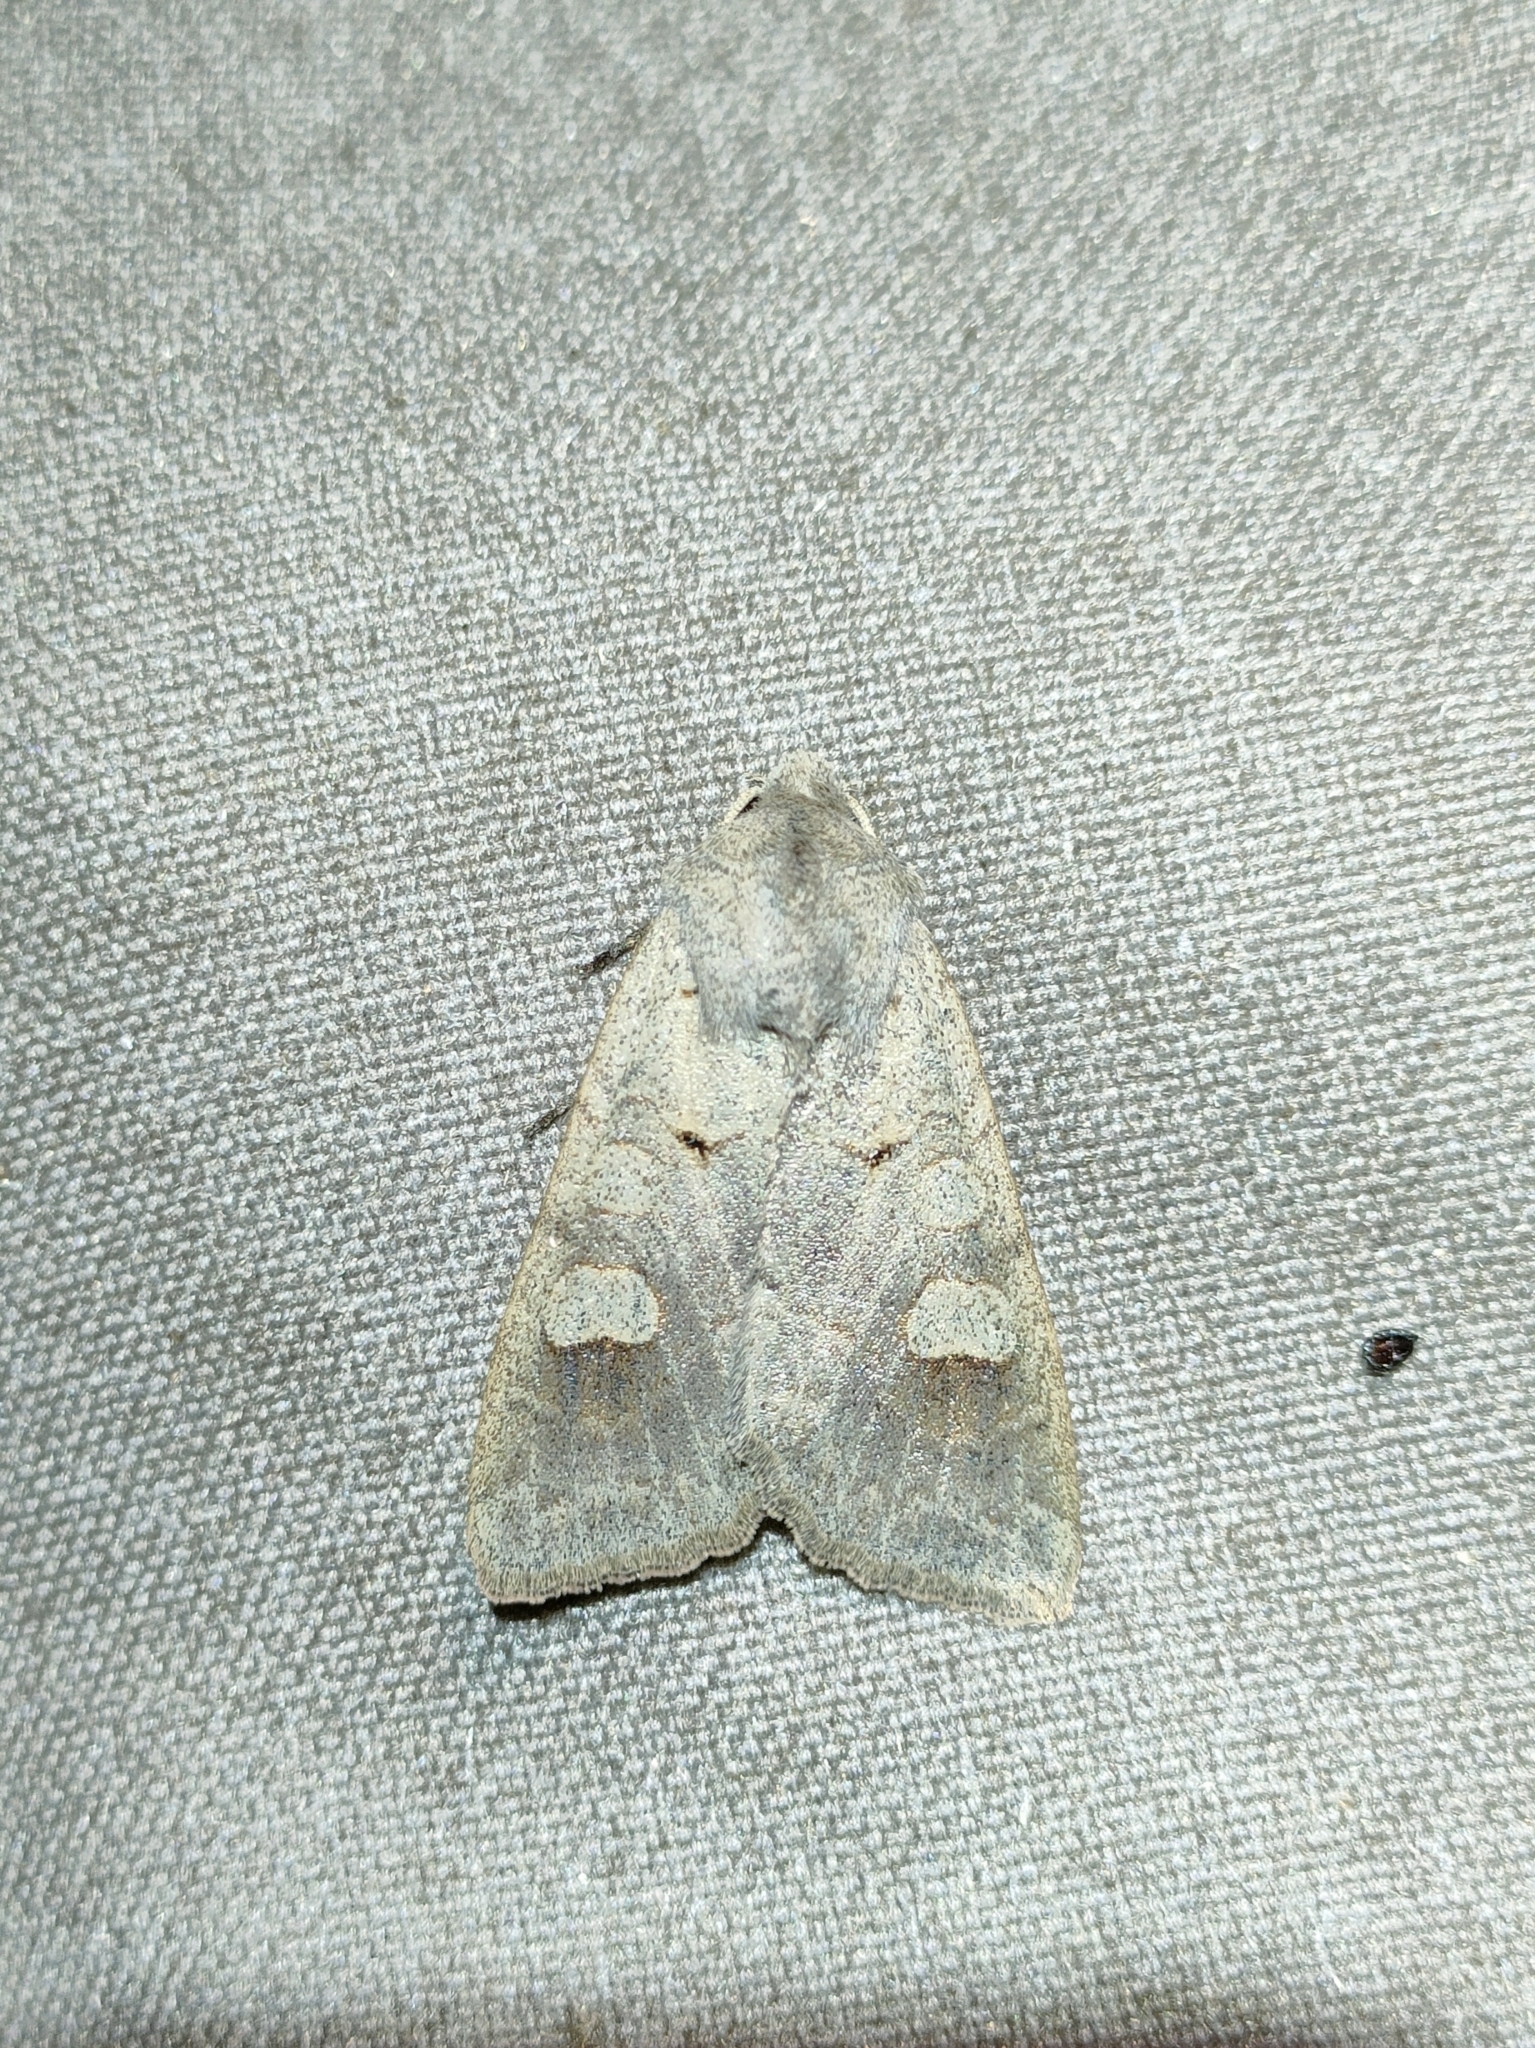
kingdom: Animalia
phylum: Arthropoda
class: Insecta
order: Lepidoptera
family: Noctuidae
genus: Ammoconia
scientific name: Ammoconia caecimacula
